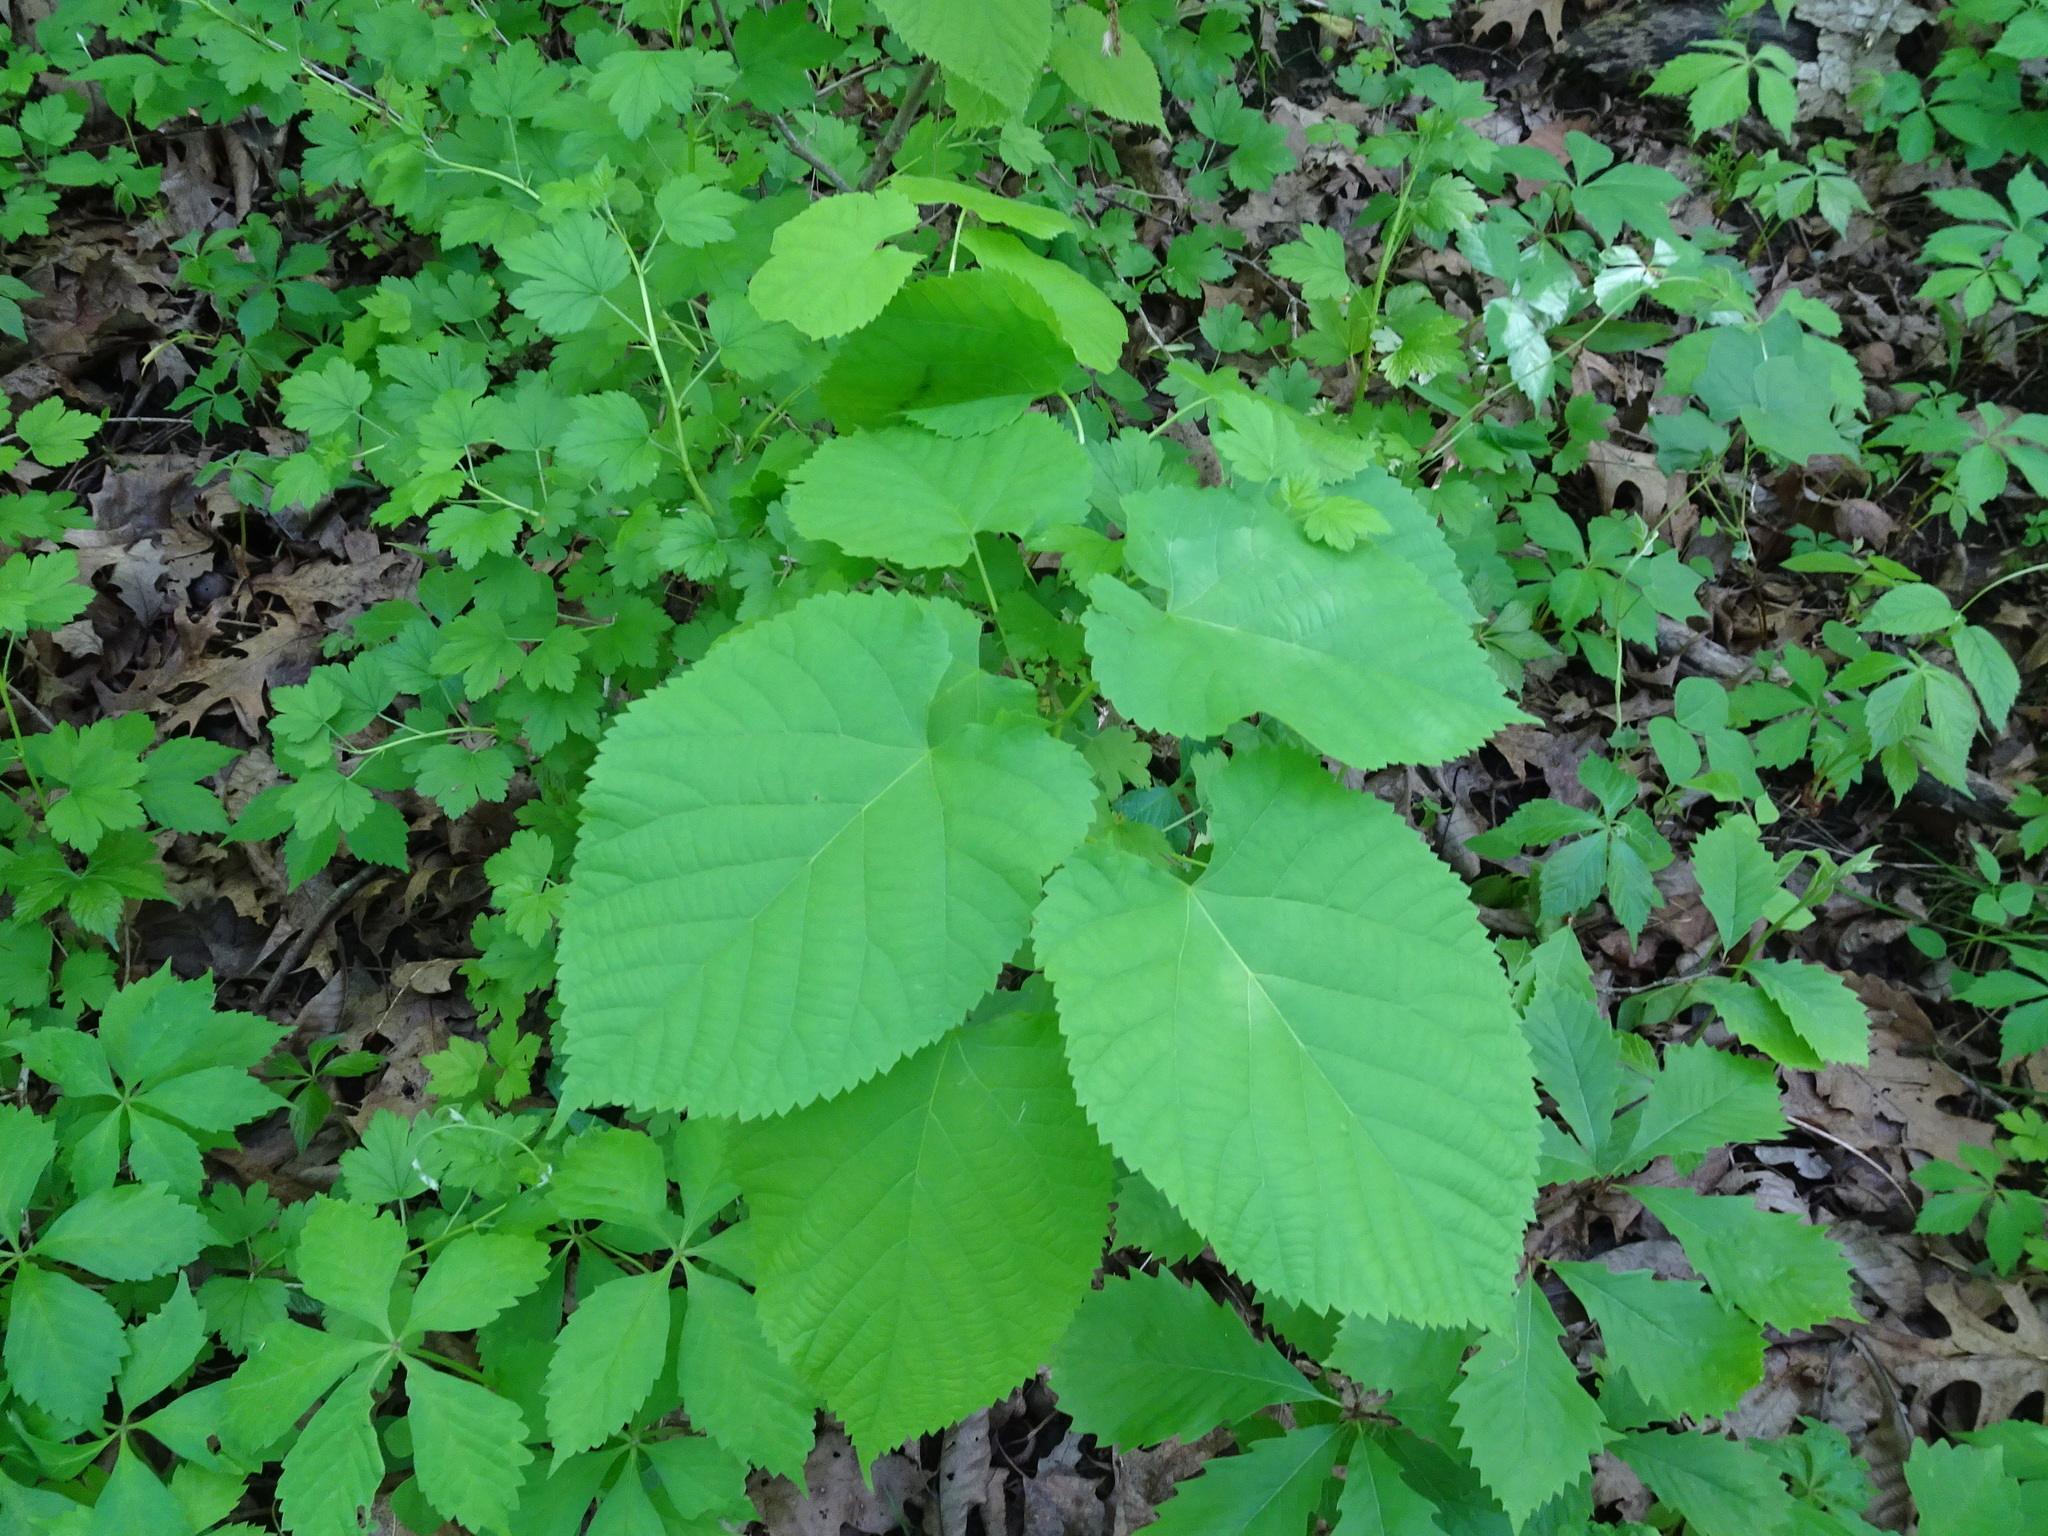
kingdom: Plantae
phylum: Tracheophyta
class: Magnoliopsida
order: Malvales
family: Malvaceae
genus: Tilia
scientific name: Tilia americana
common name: Basswood
